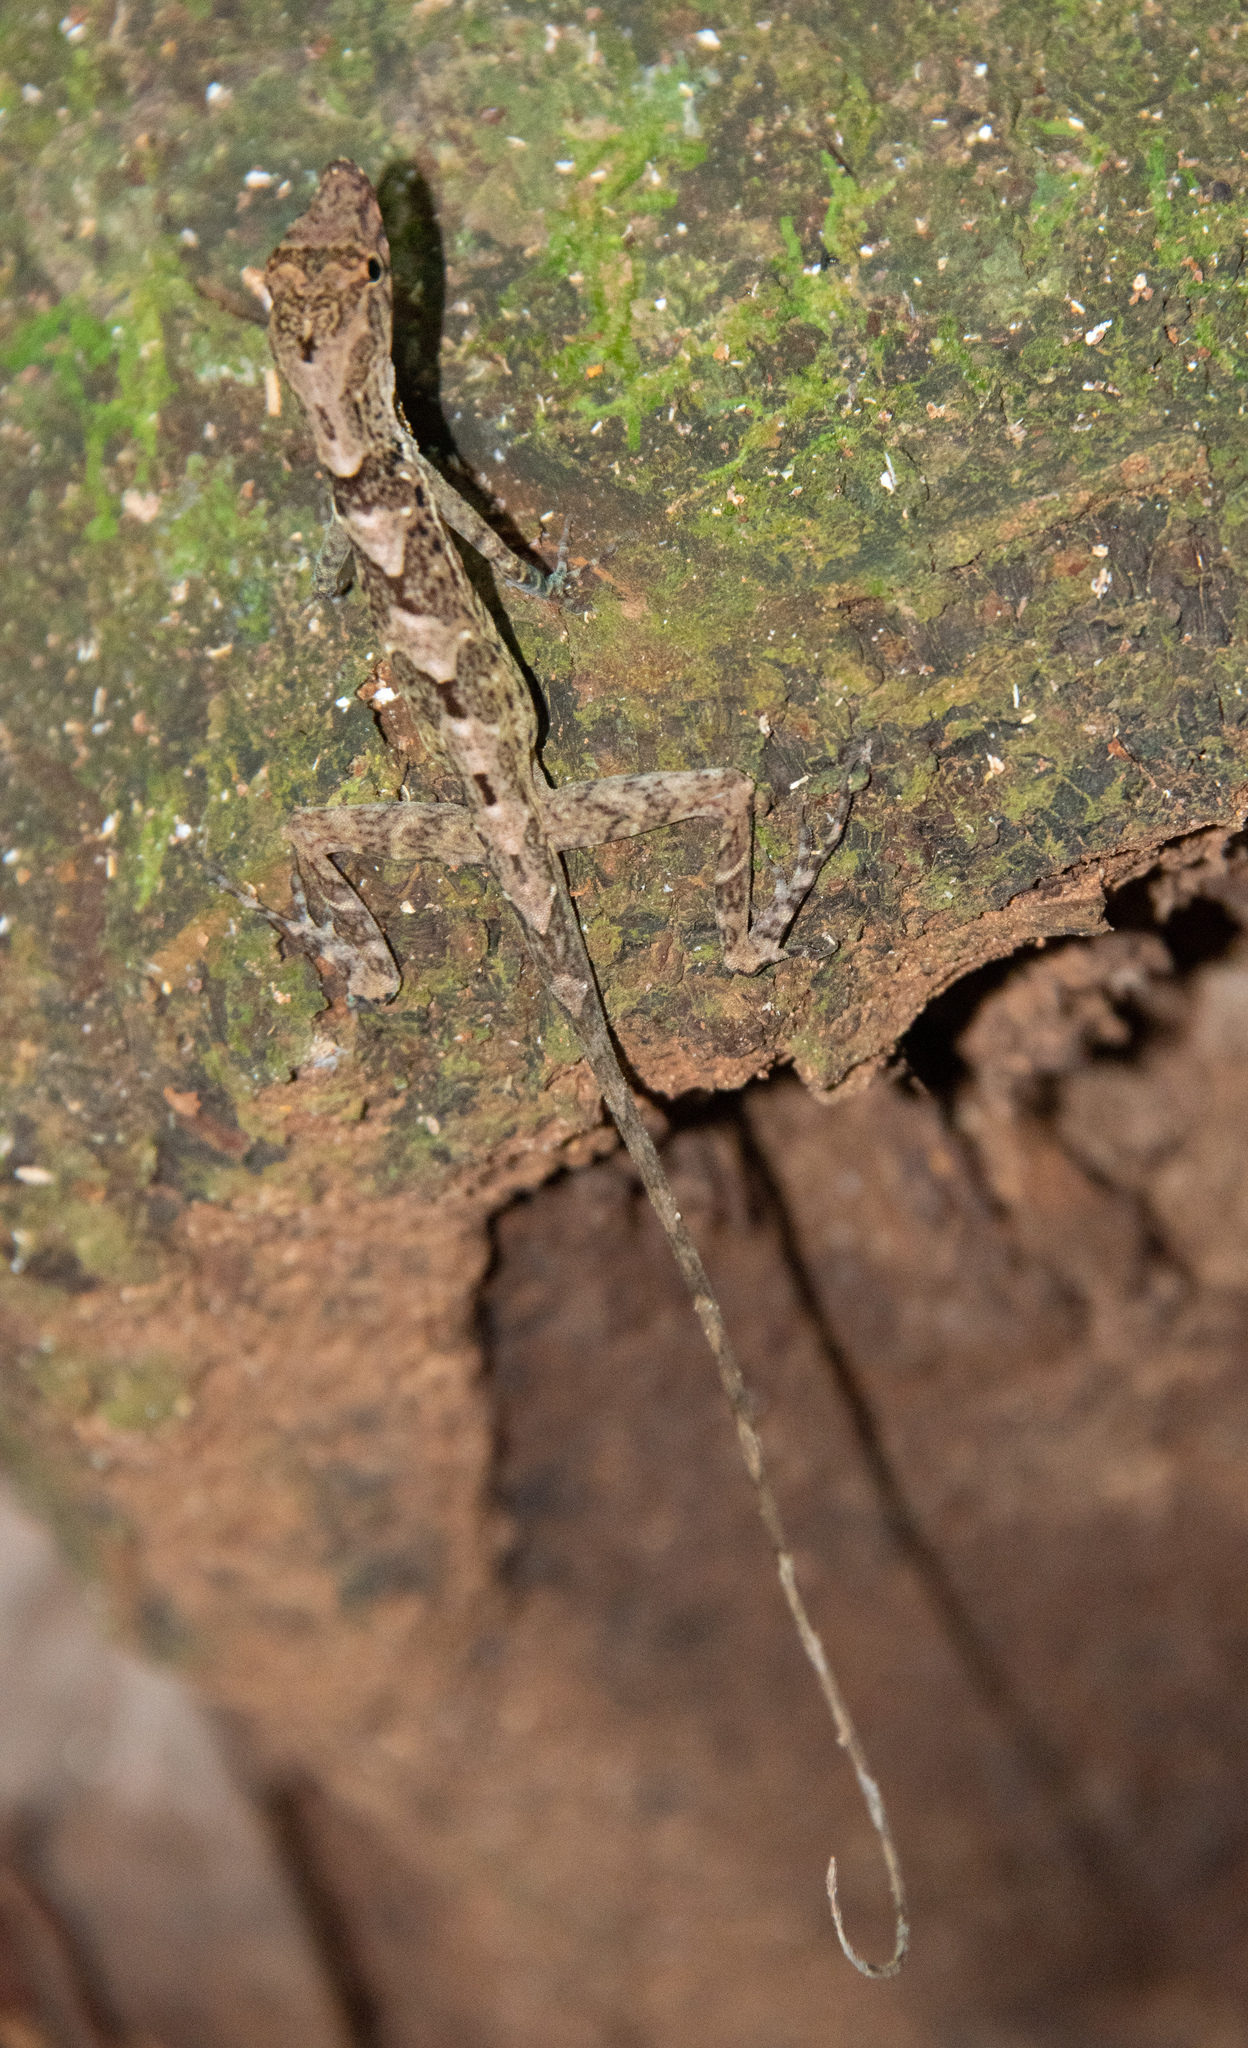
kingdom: Animalia
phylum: Chordata
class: Squamata
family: Dactyloidae
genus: Anolis
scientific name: Anolis osa
